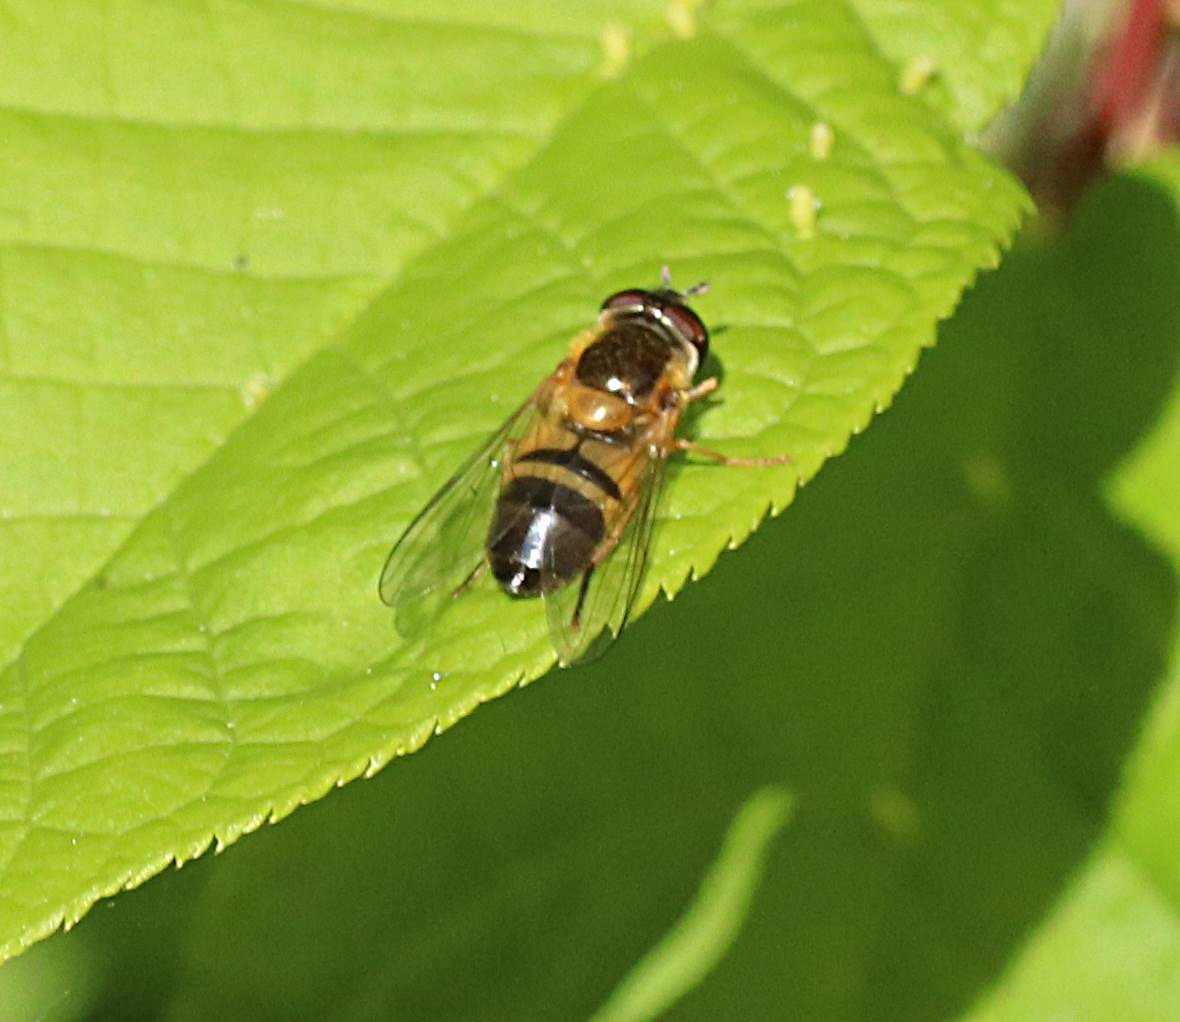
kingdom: Animalia
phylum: Arthropoda
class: Insecta
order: Diptera
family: Syrphidae
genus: Epistrophe
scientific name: Epistrophe eligans
